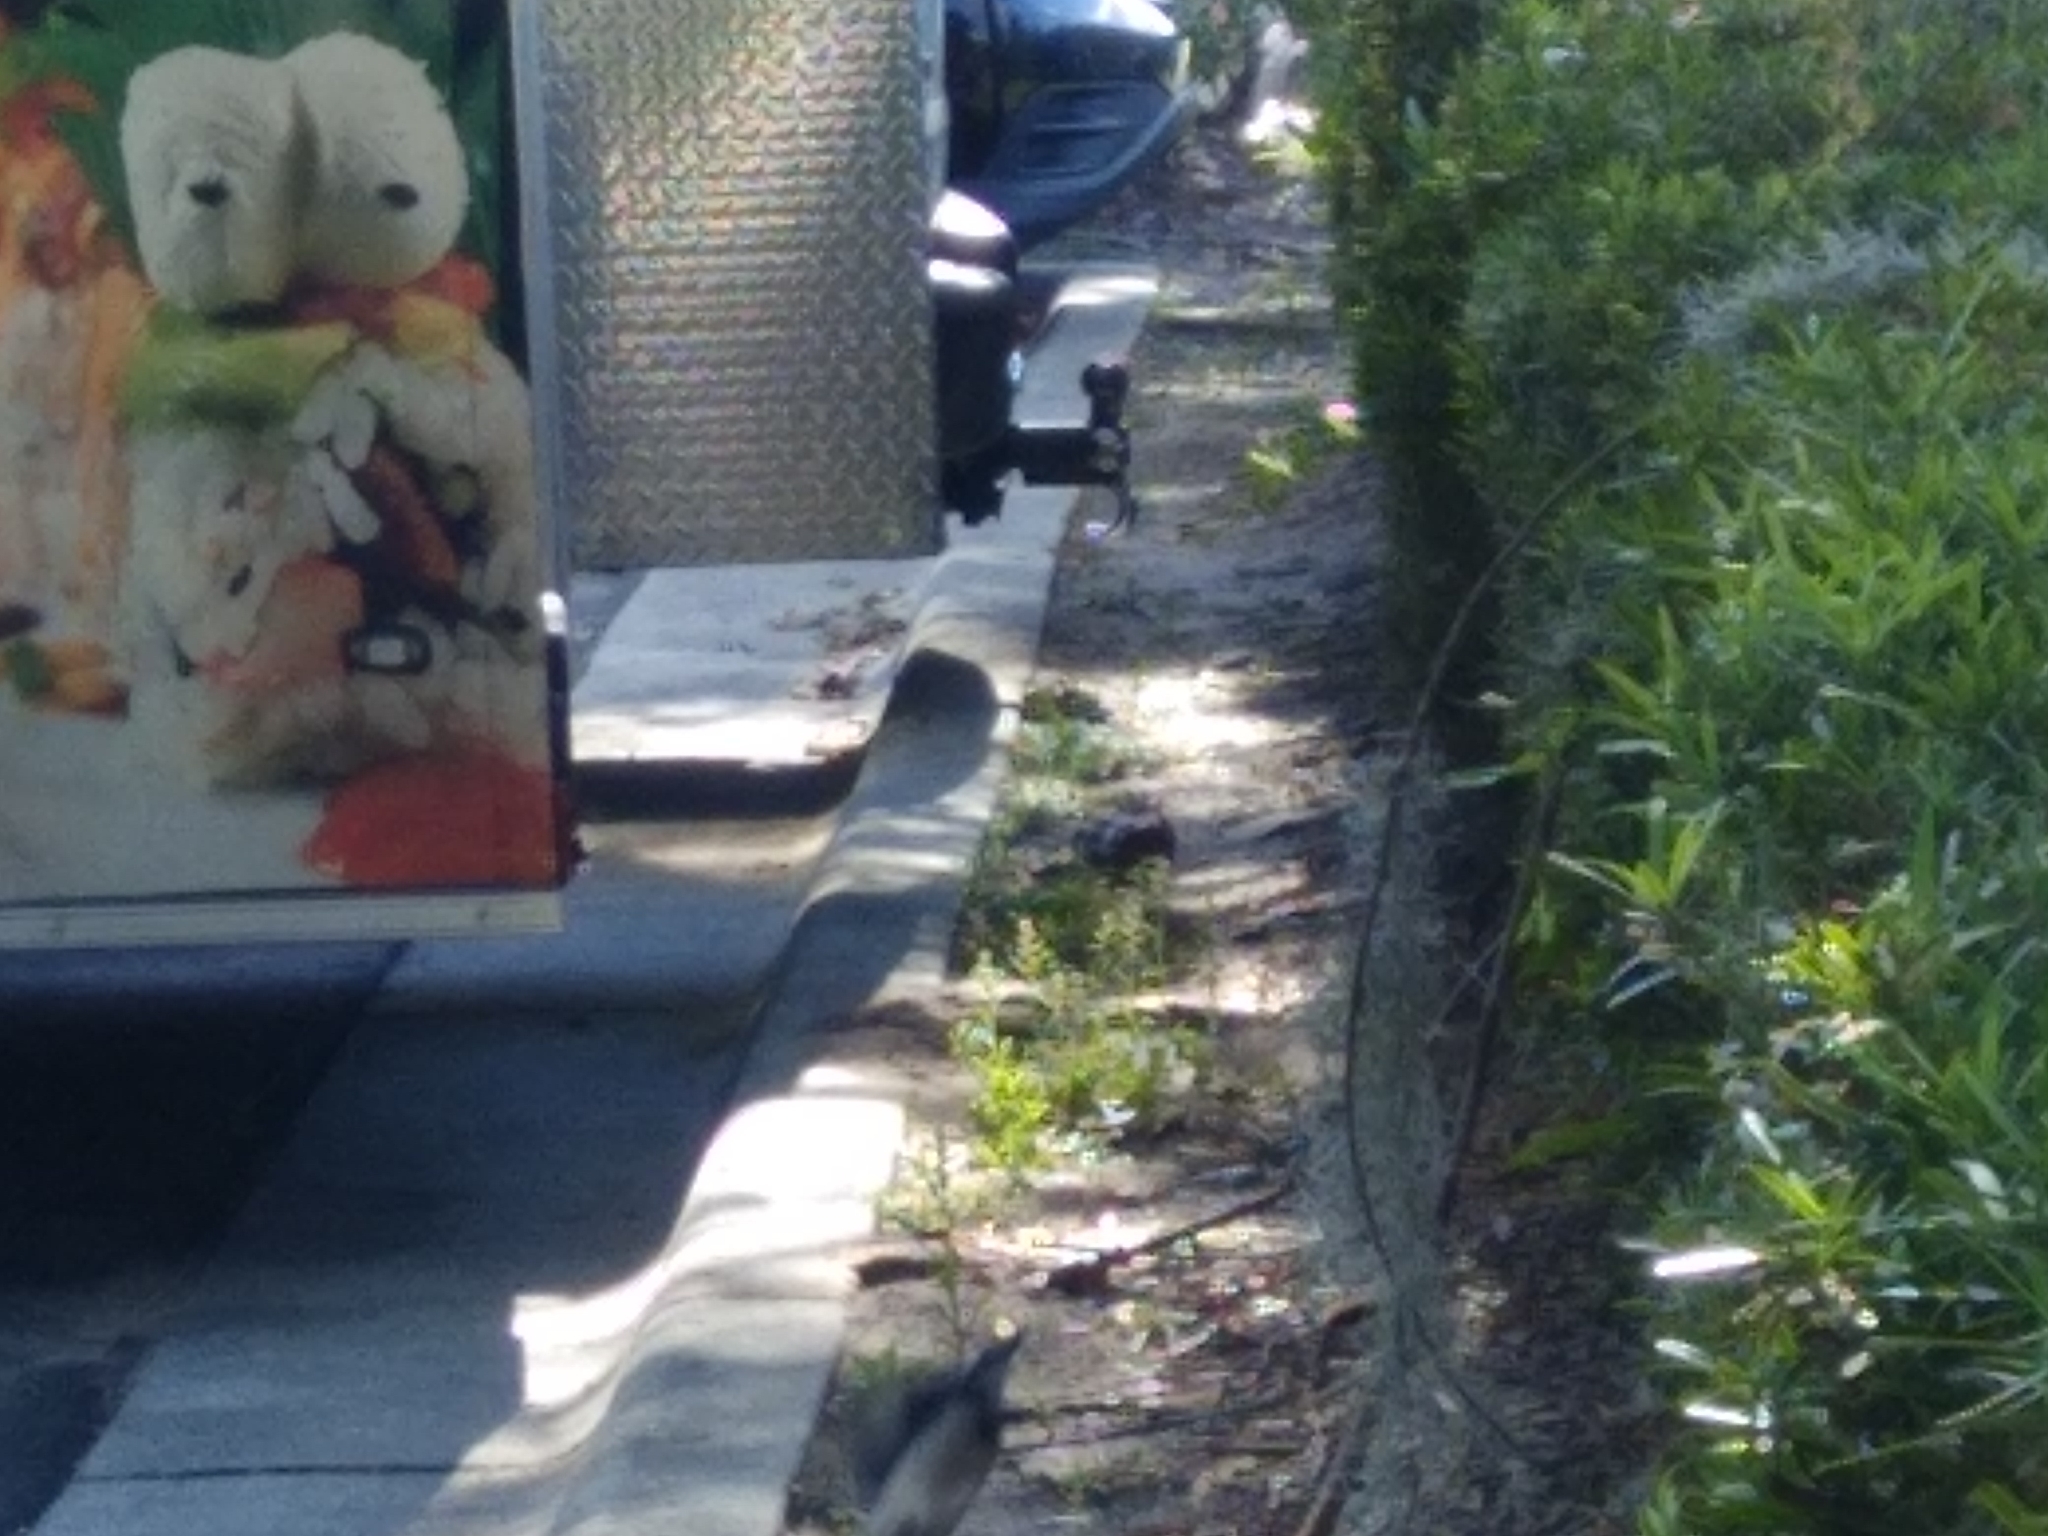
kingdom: Animalia
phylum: Chordata
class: Aves
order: Passeriformes
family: Corvidae
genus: Cyanocitta
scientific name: Cyanocitta cristata
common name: Blue jay
